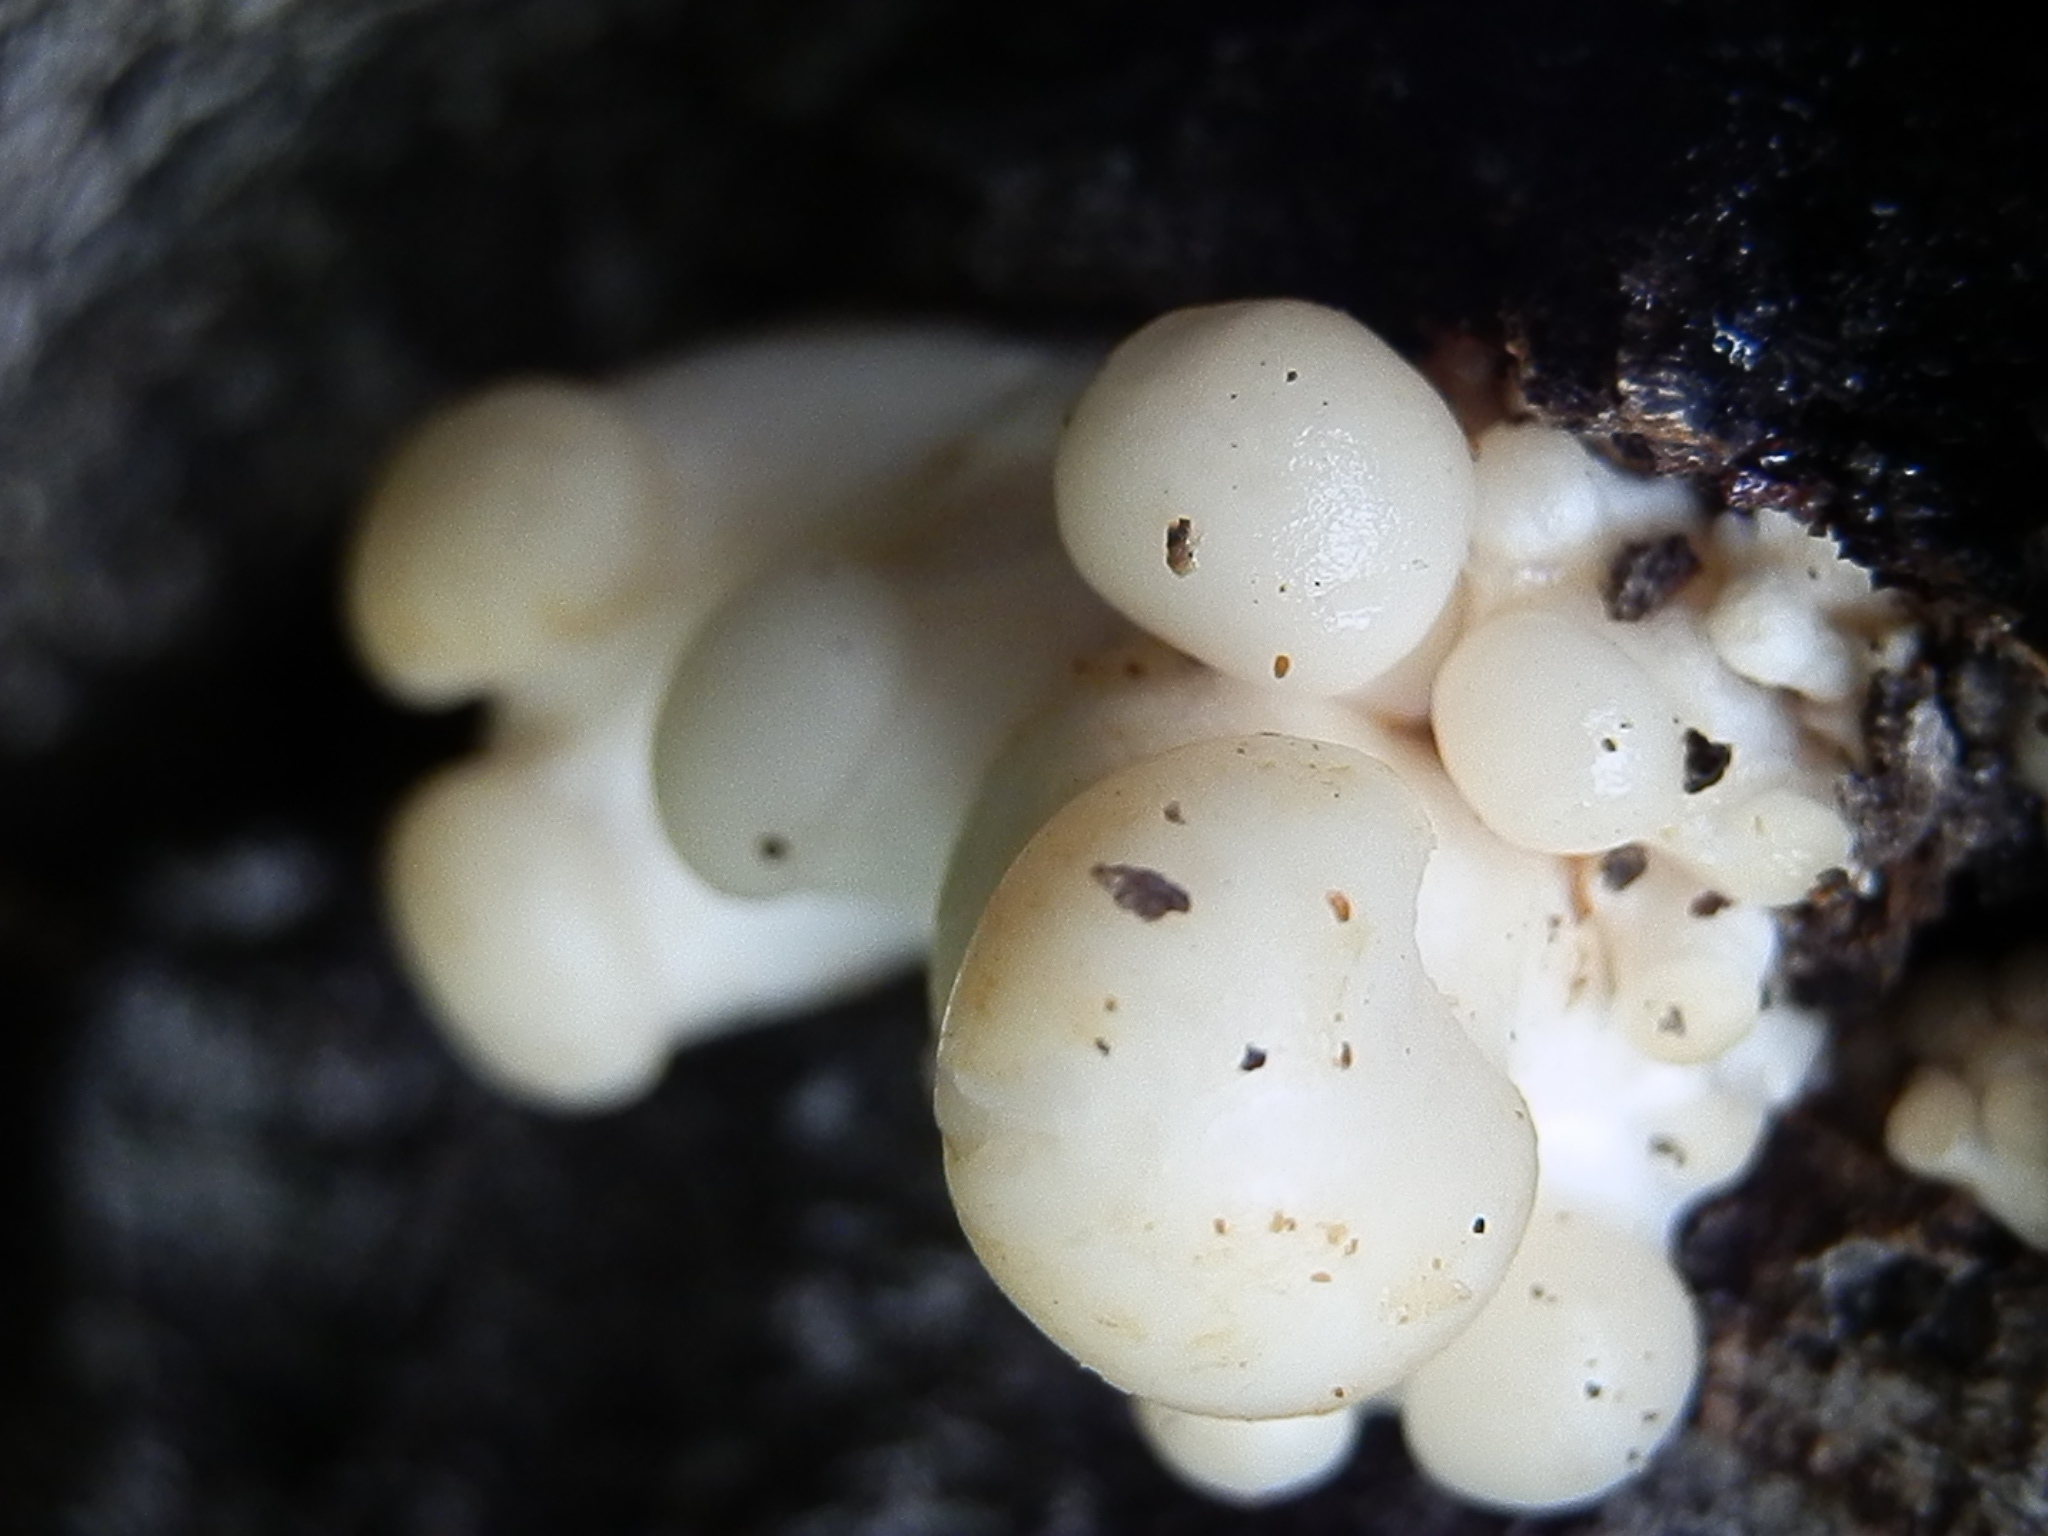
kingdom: Fungi
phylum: Basidiomycota
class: Agaricomycetes
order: Agaricales
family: Pleurotaceae
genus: Pleurotus
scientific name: Pleurotus populinus
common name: Aspen oyster mushroom
